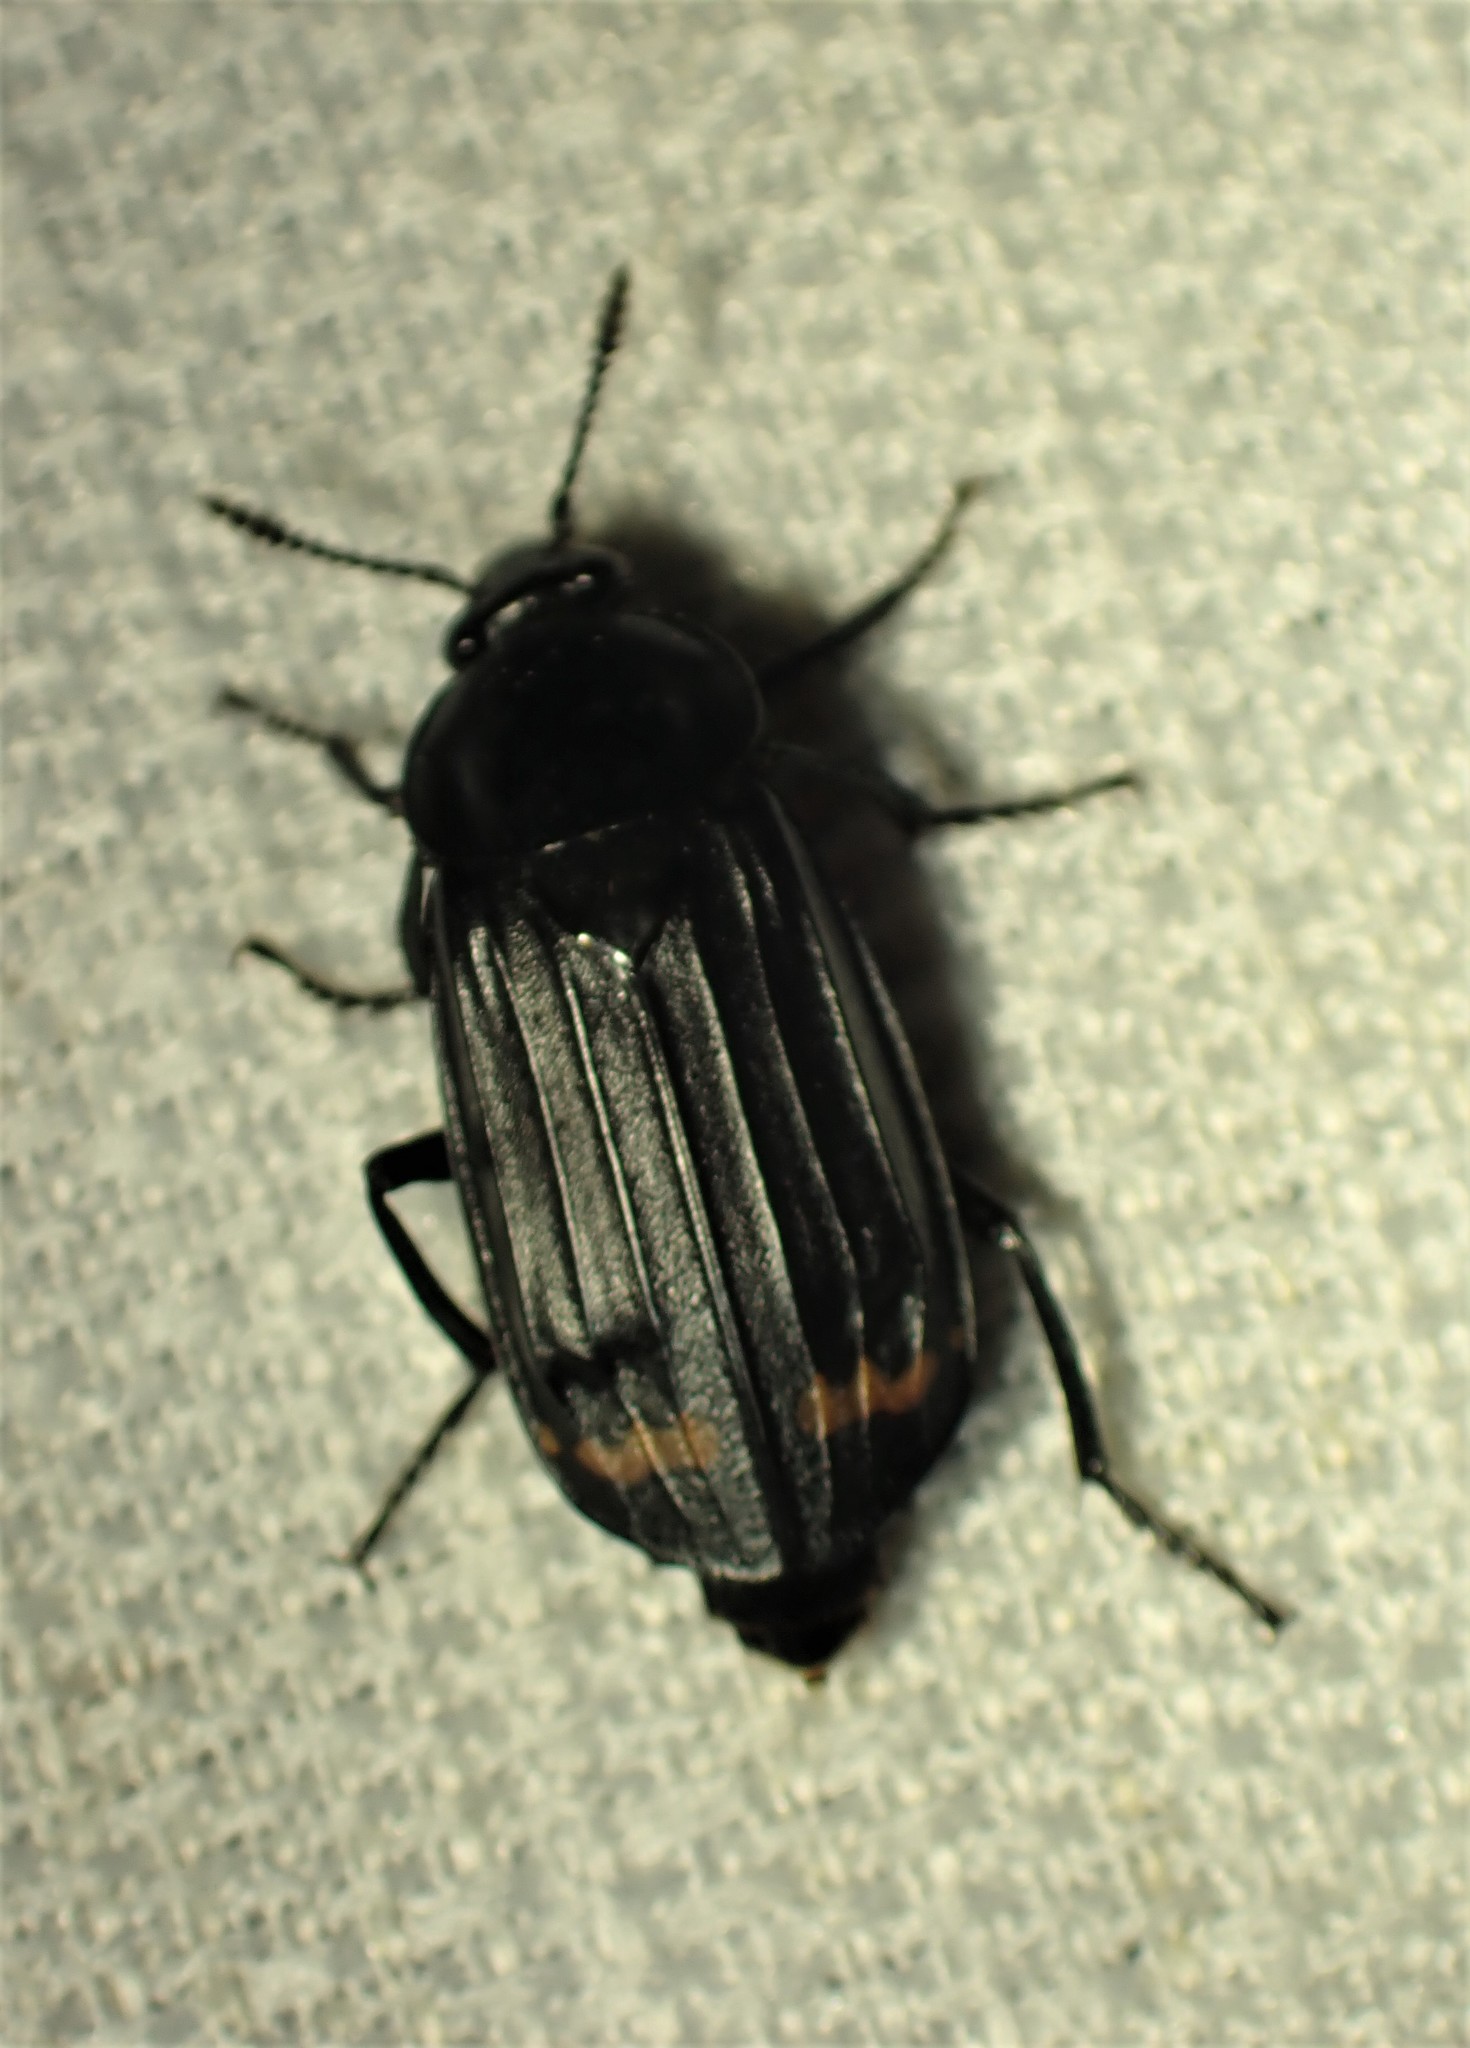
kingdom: Animalia
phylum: Arthropoda
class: Insecta
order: Coleoptera
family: Staphylinidae
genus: Necrodes
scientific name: Necrodes surinamensis
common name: Red-lined carrion beetle
